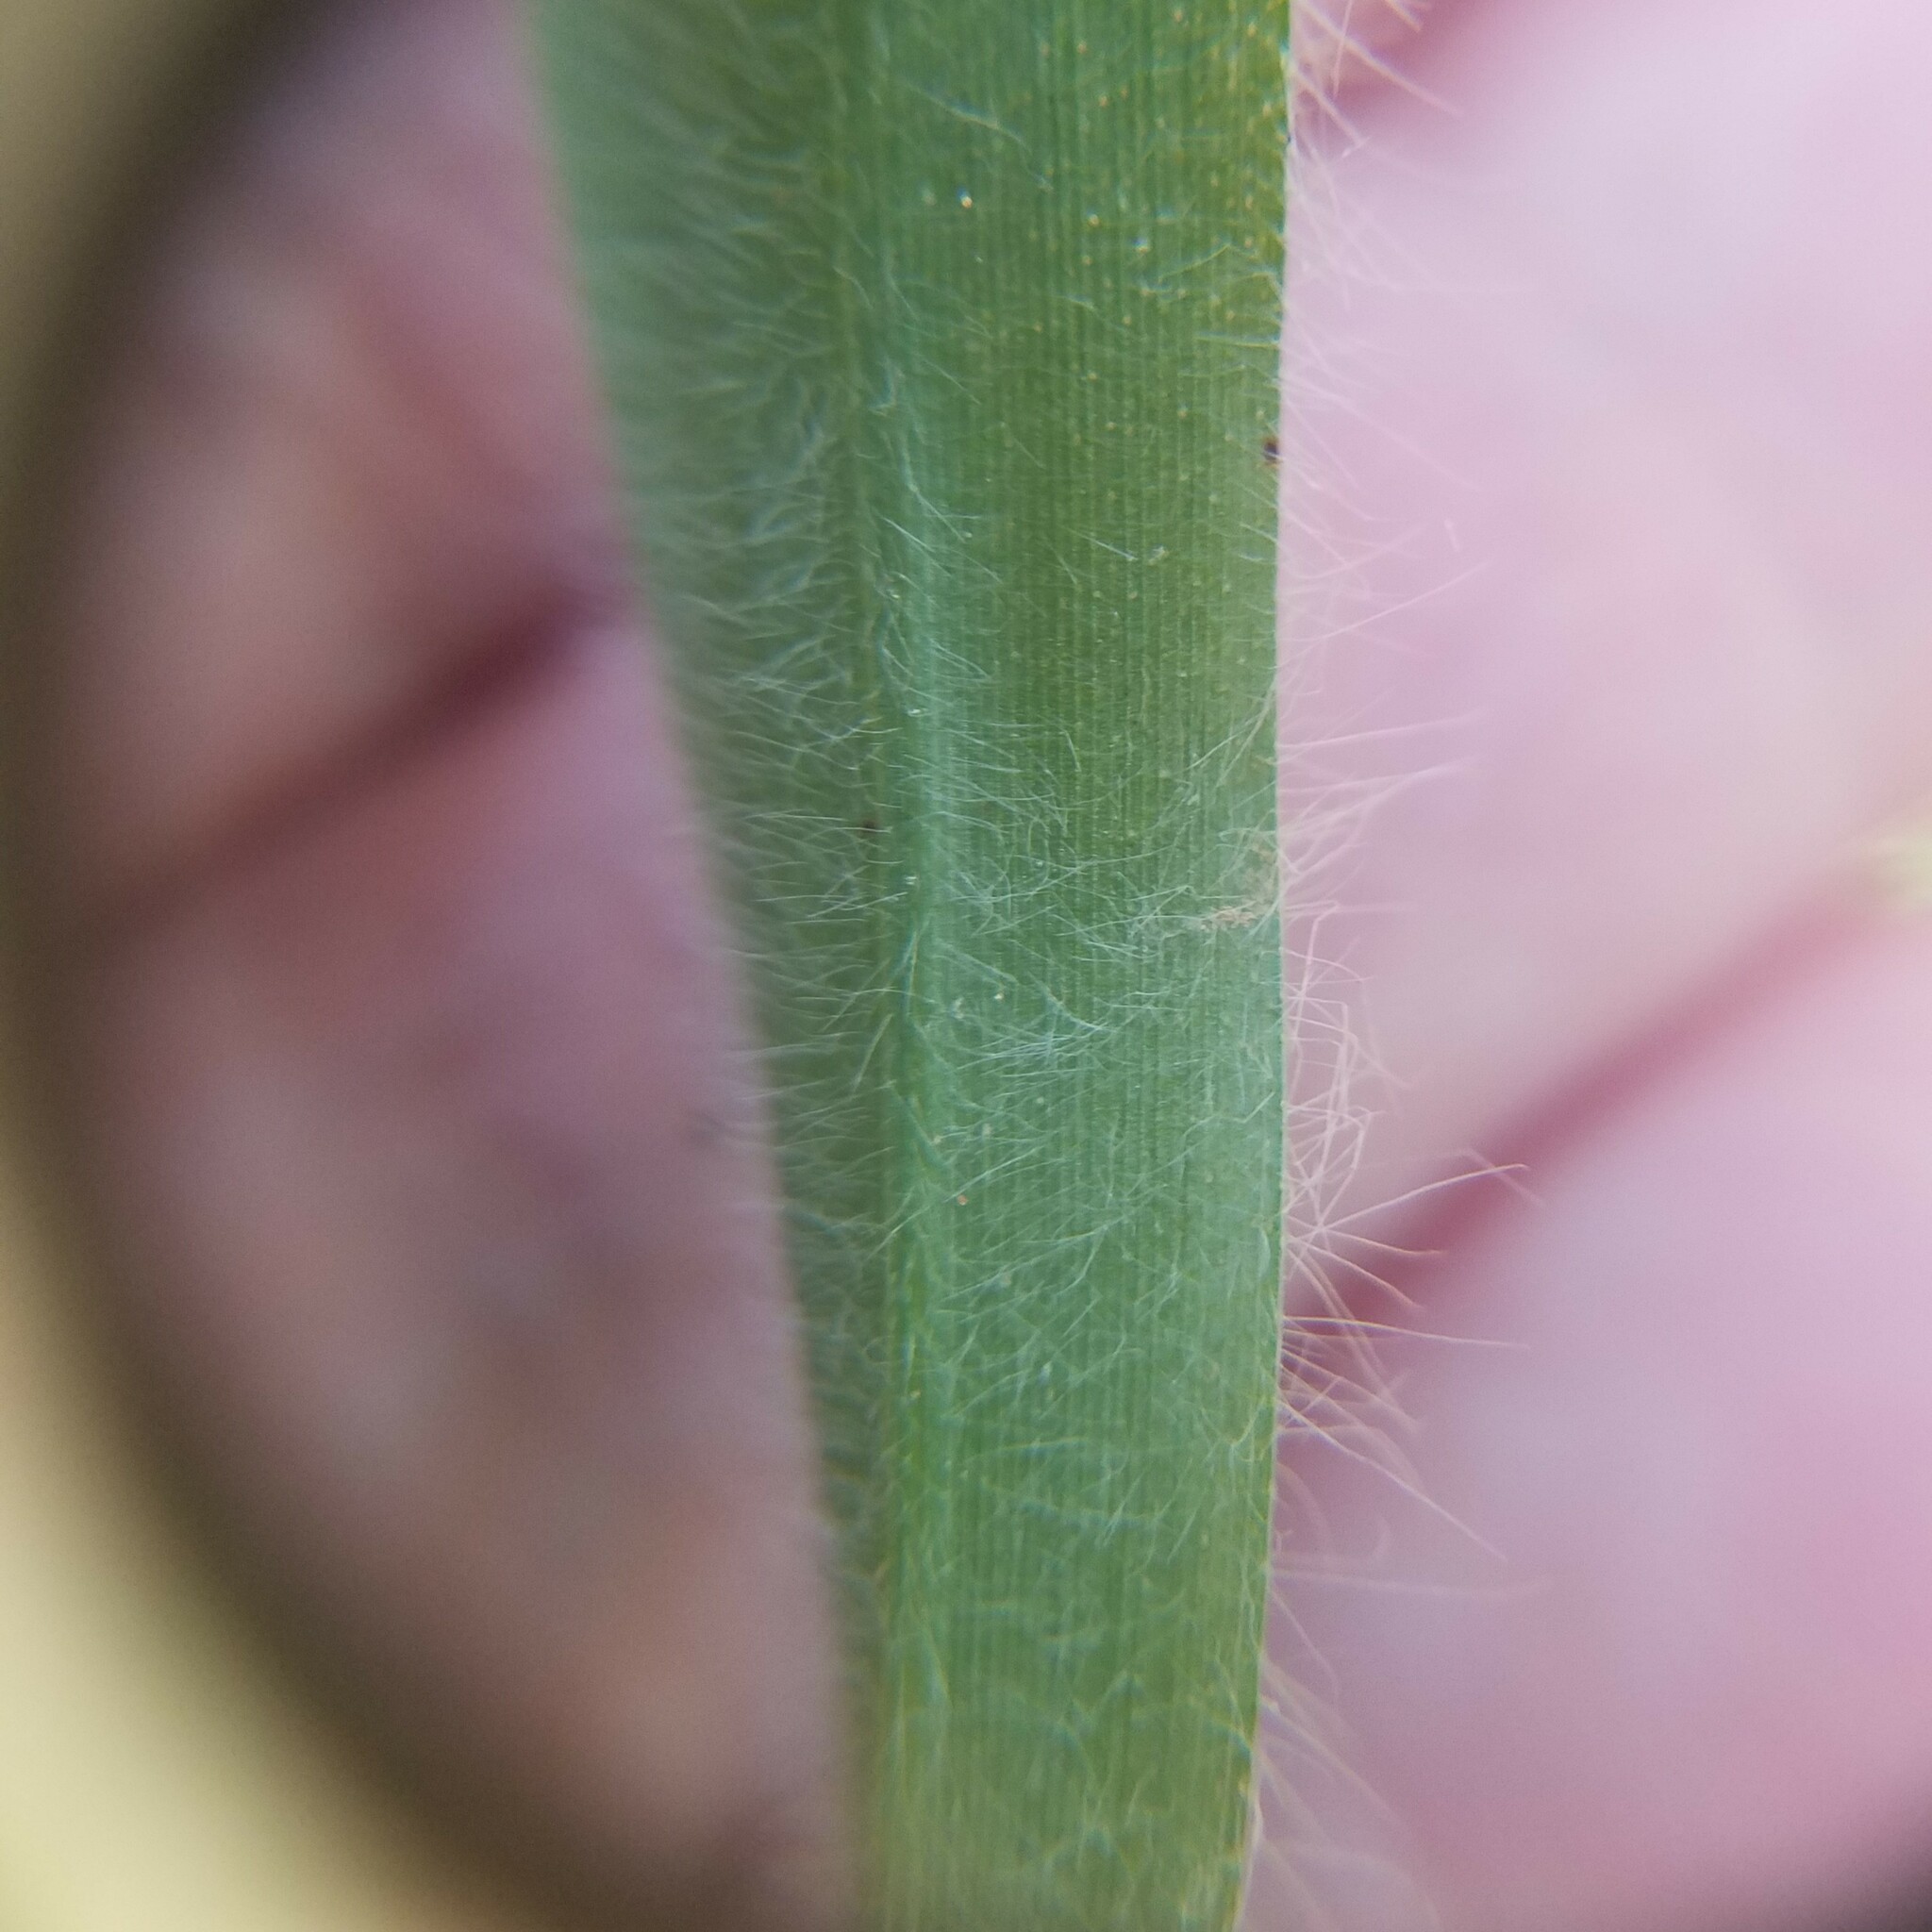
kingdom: Plantae
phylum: Tracheophyta
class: Liliopsida
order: Poales
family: Poaceae
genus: Dichanthelium
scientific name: Dichanthelium villosissimum
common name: White-haired panicgrass
